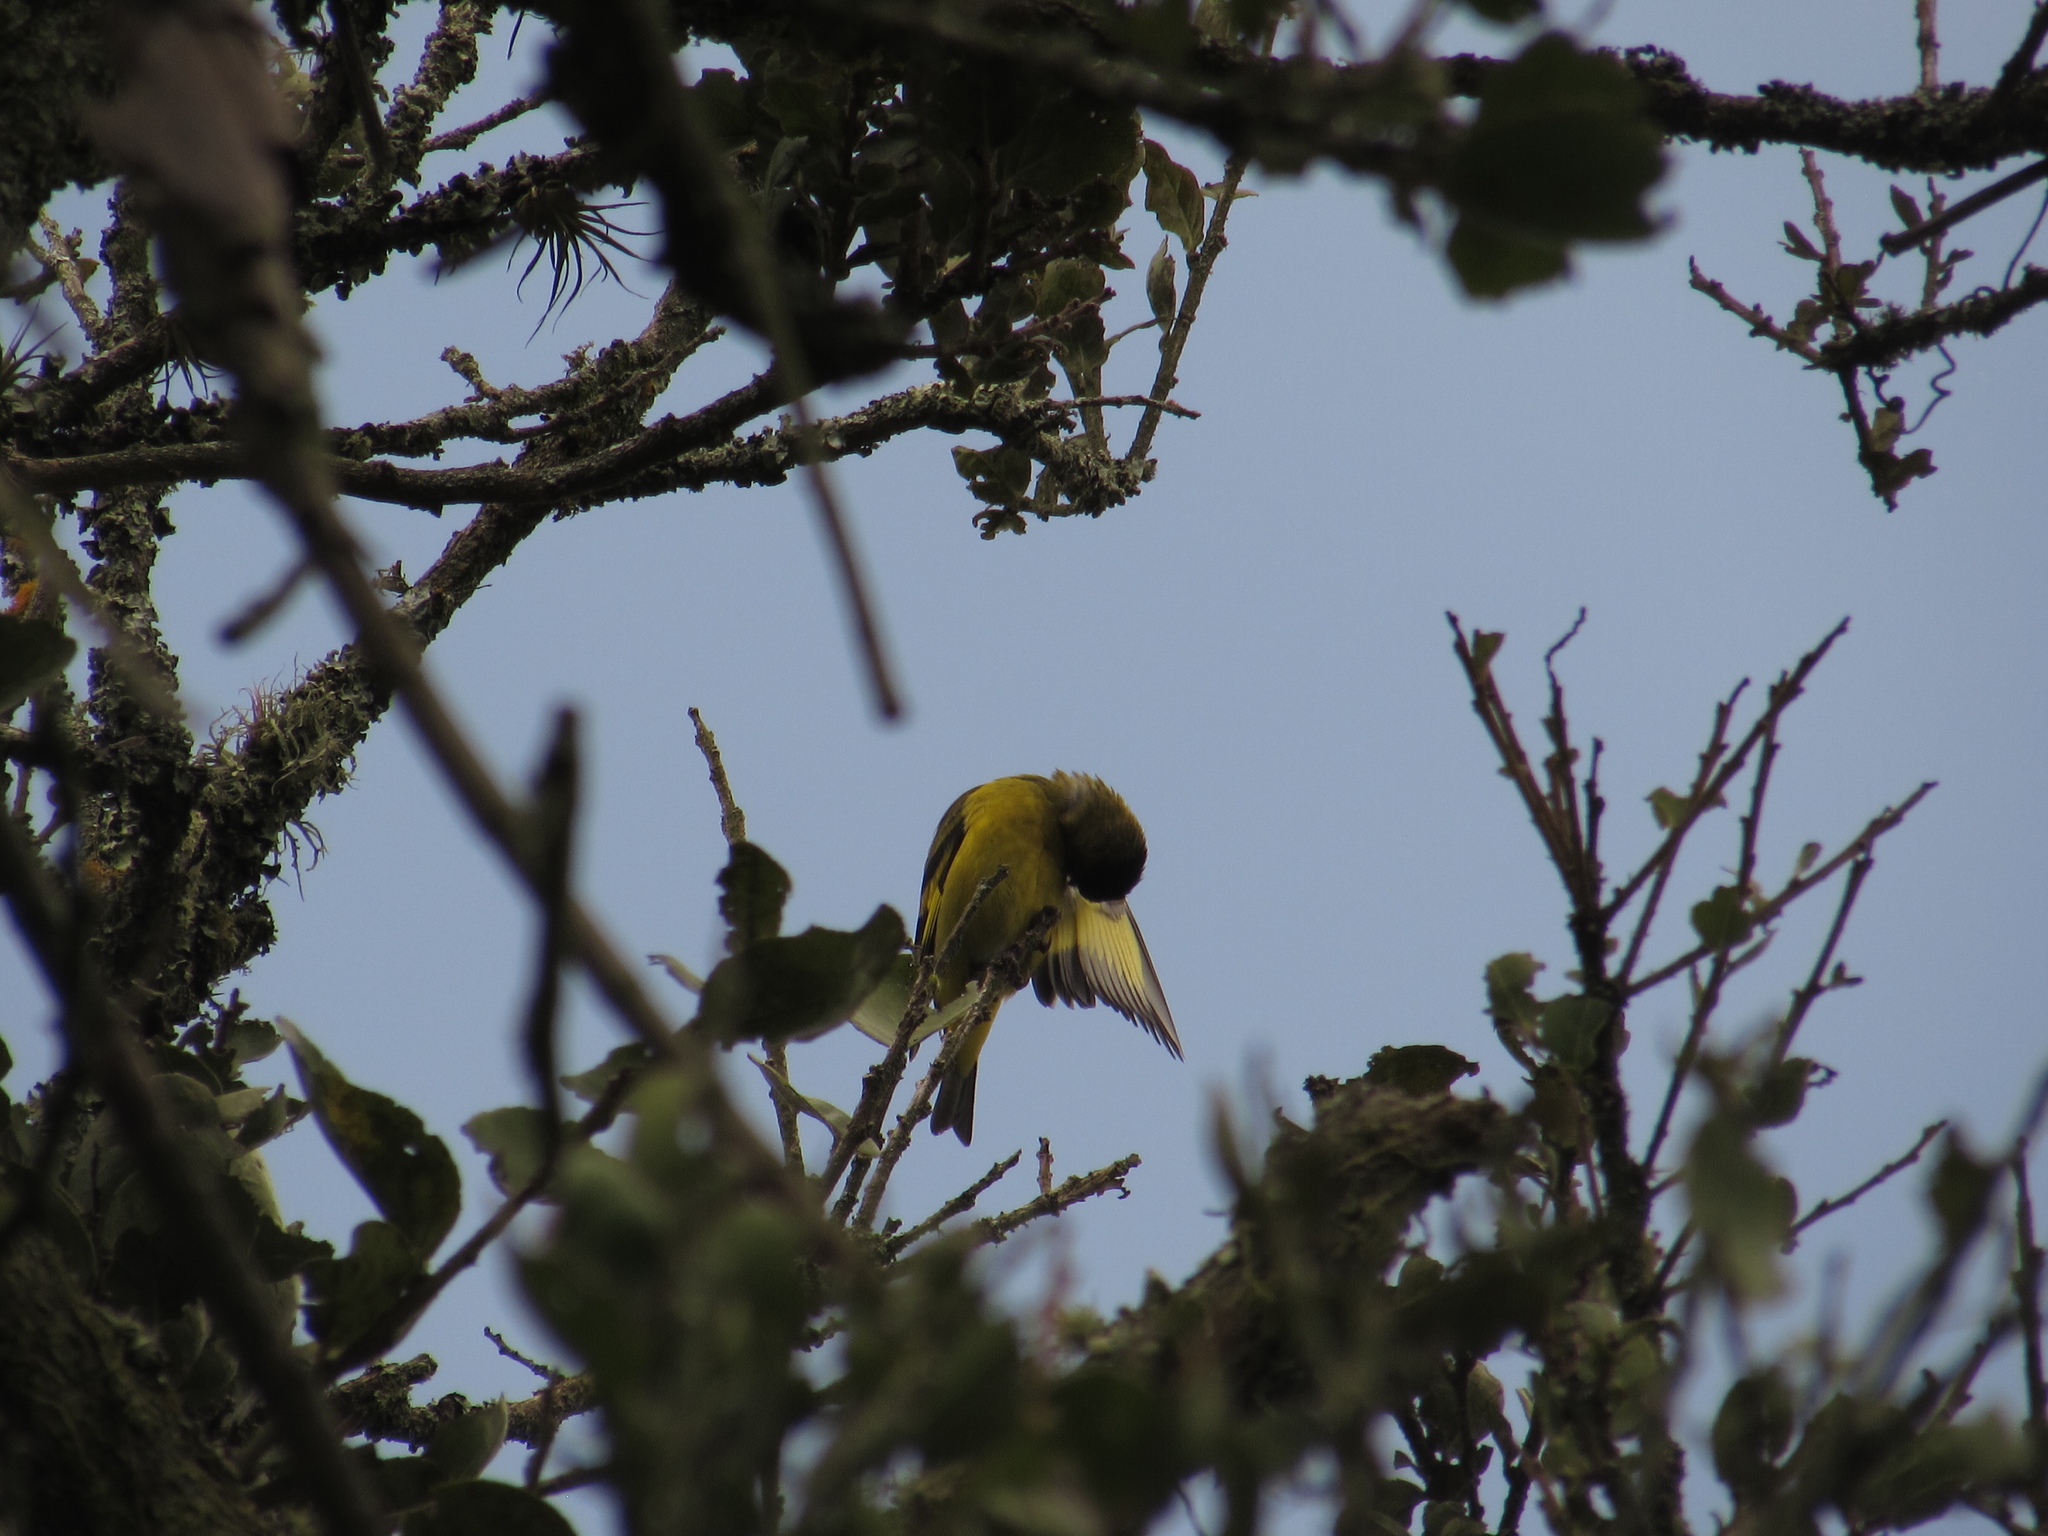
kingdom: Animalia
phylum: Chordata
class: Aves
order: Passeriformes
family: Fringillidae
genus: Spinus
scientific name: Spinus spinescens
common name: Andean siskin
